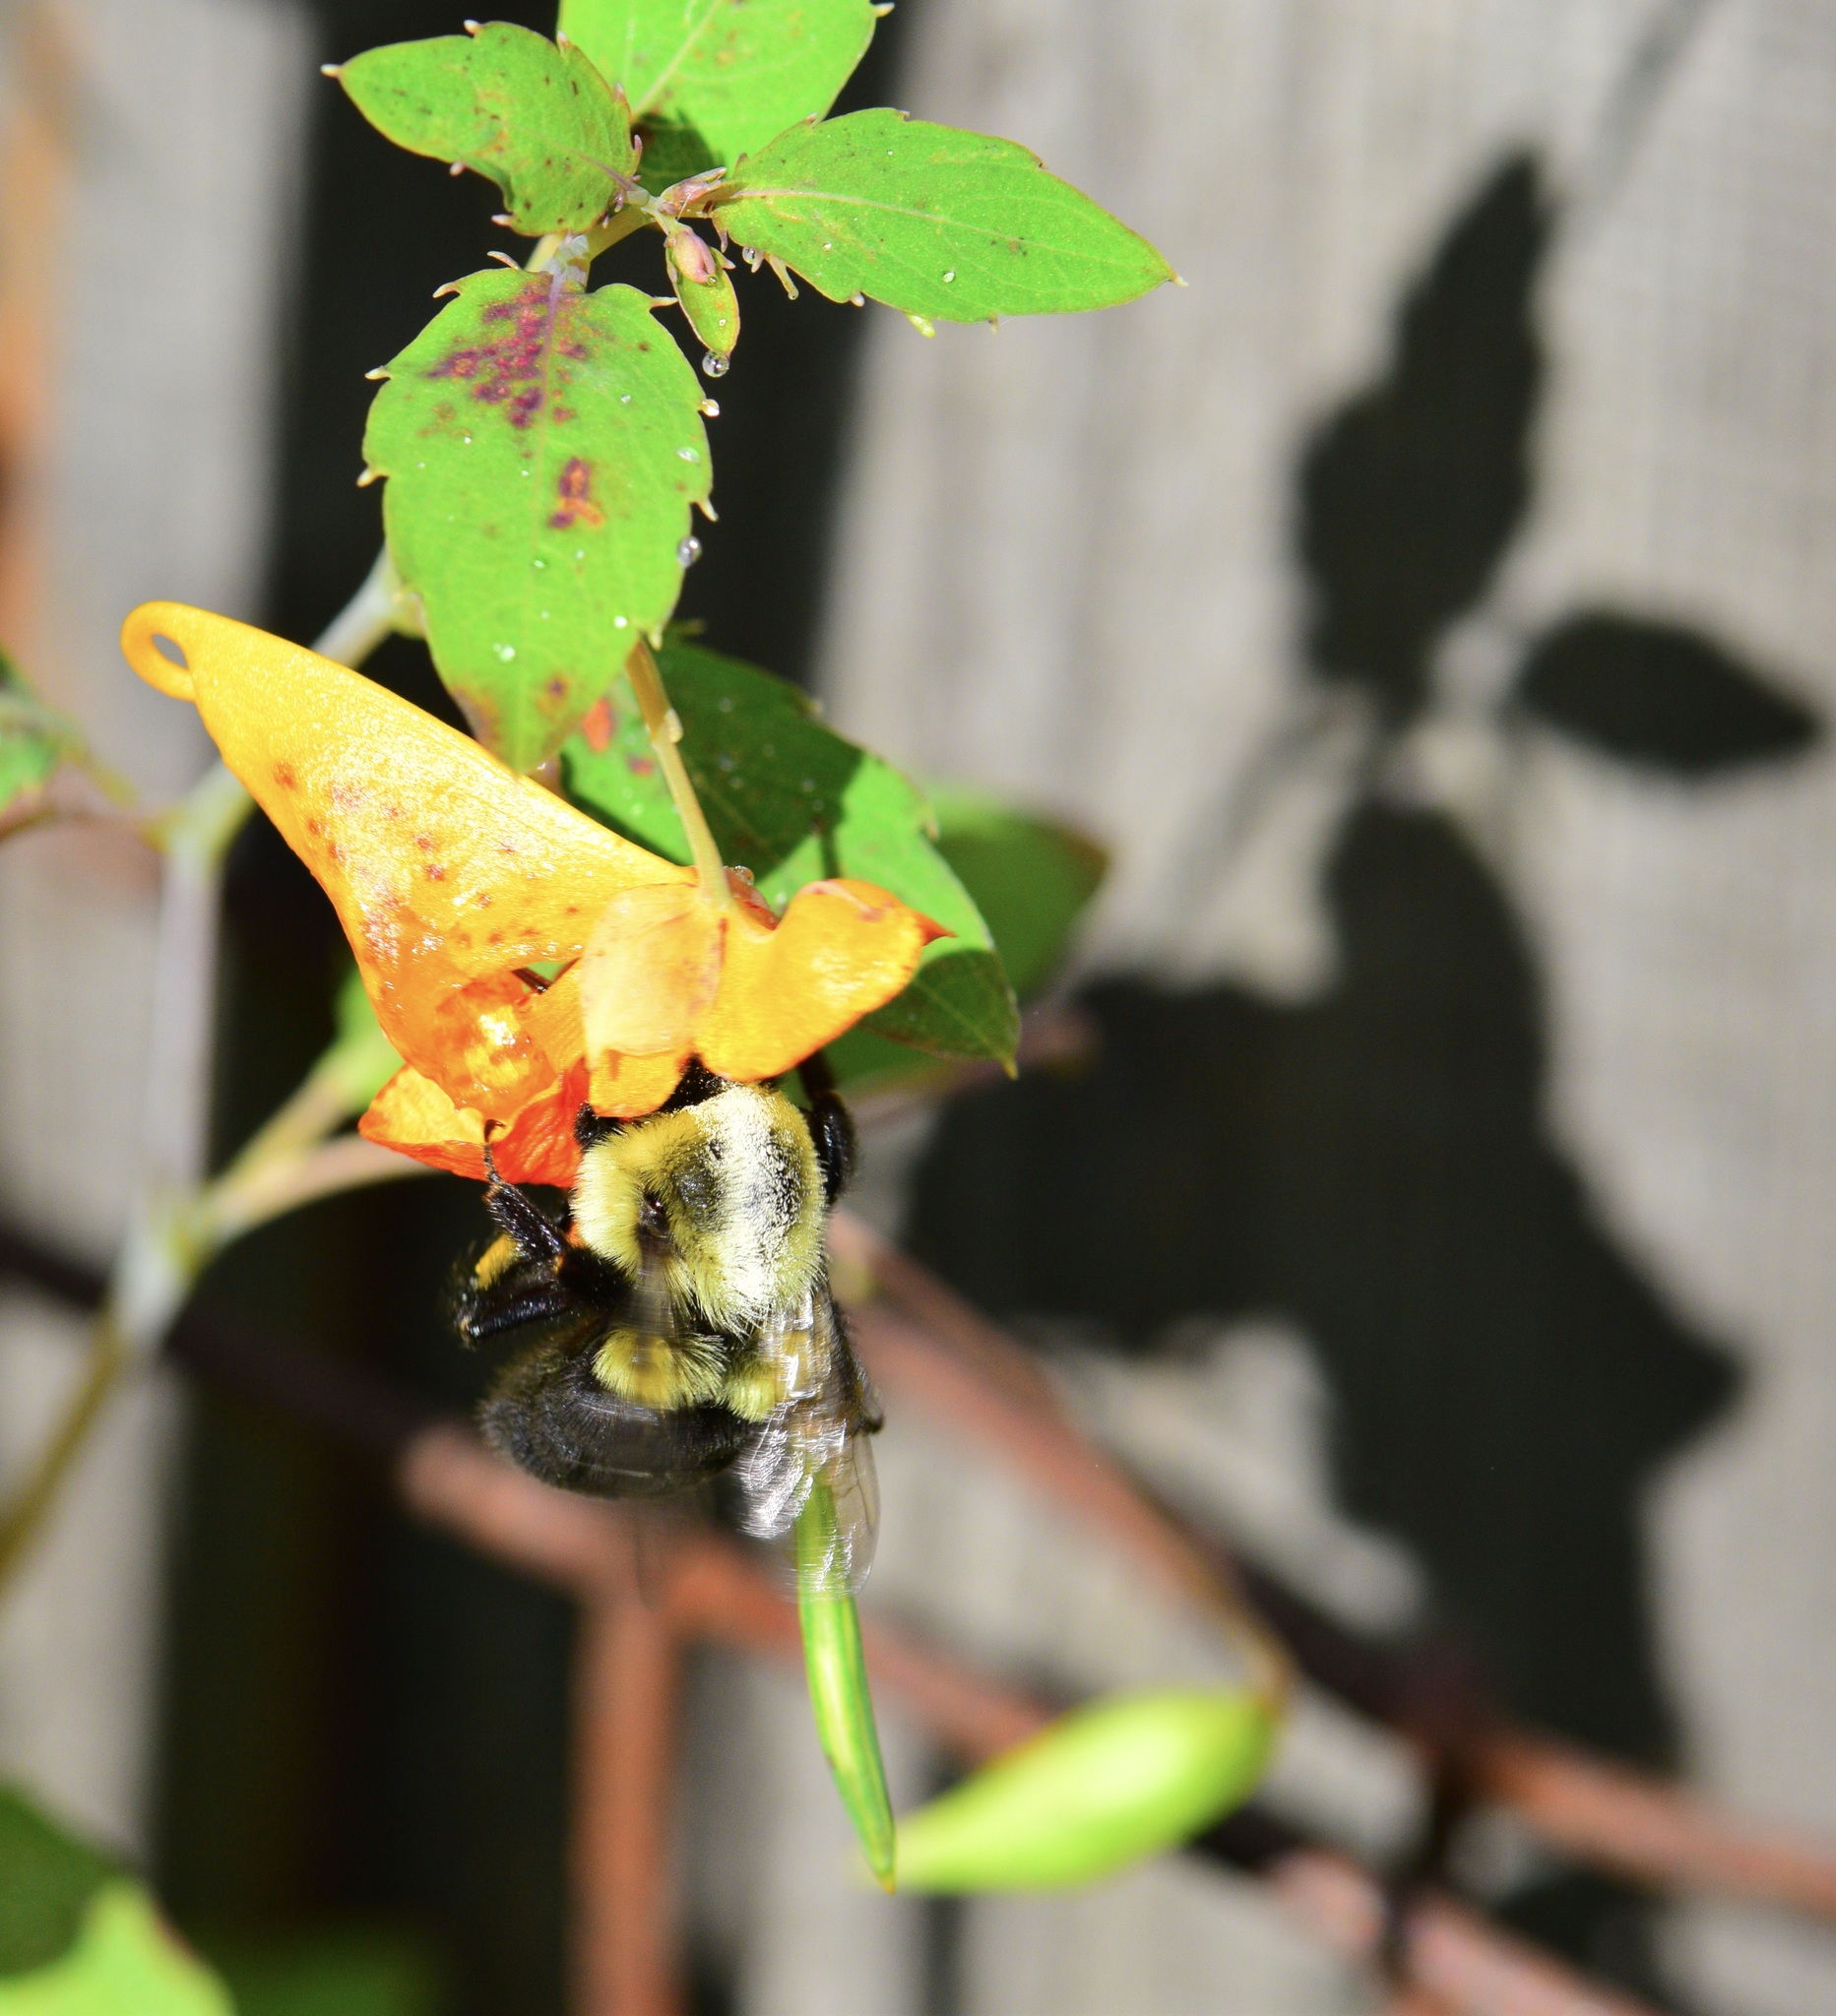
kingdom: Animalia
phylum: Arthropoda
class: Insecta
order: Hymenoptera
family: Apidae
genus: Bombus
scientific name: Bombus impatiens
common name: Common eastern bumble bee
